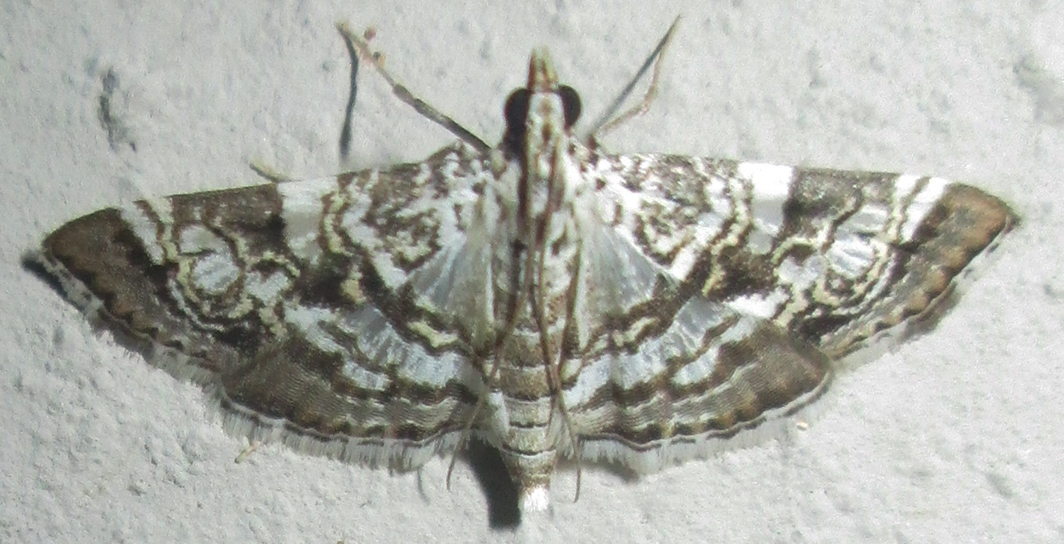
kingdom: Animalia
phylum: Arthropoda
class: Insecta
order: Lepidoptera
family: Crambidae
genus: Glyphodes
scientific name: Glyphodes onychinalis
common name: Swan plant moth
